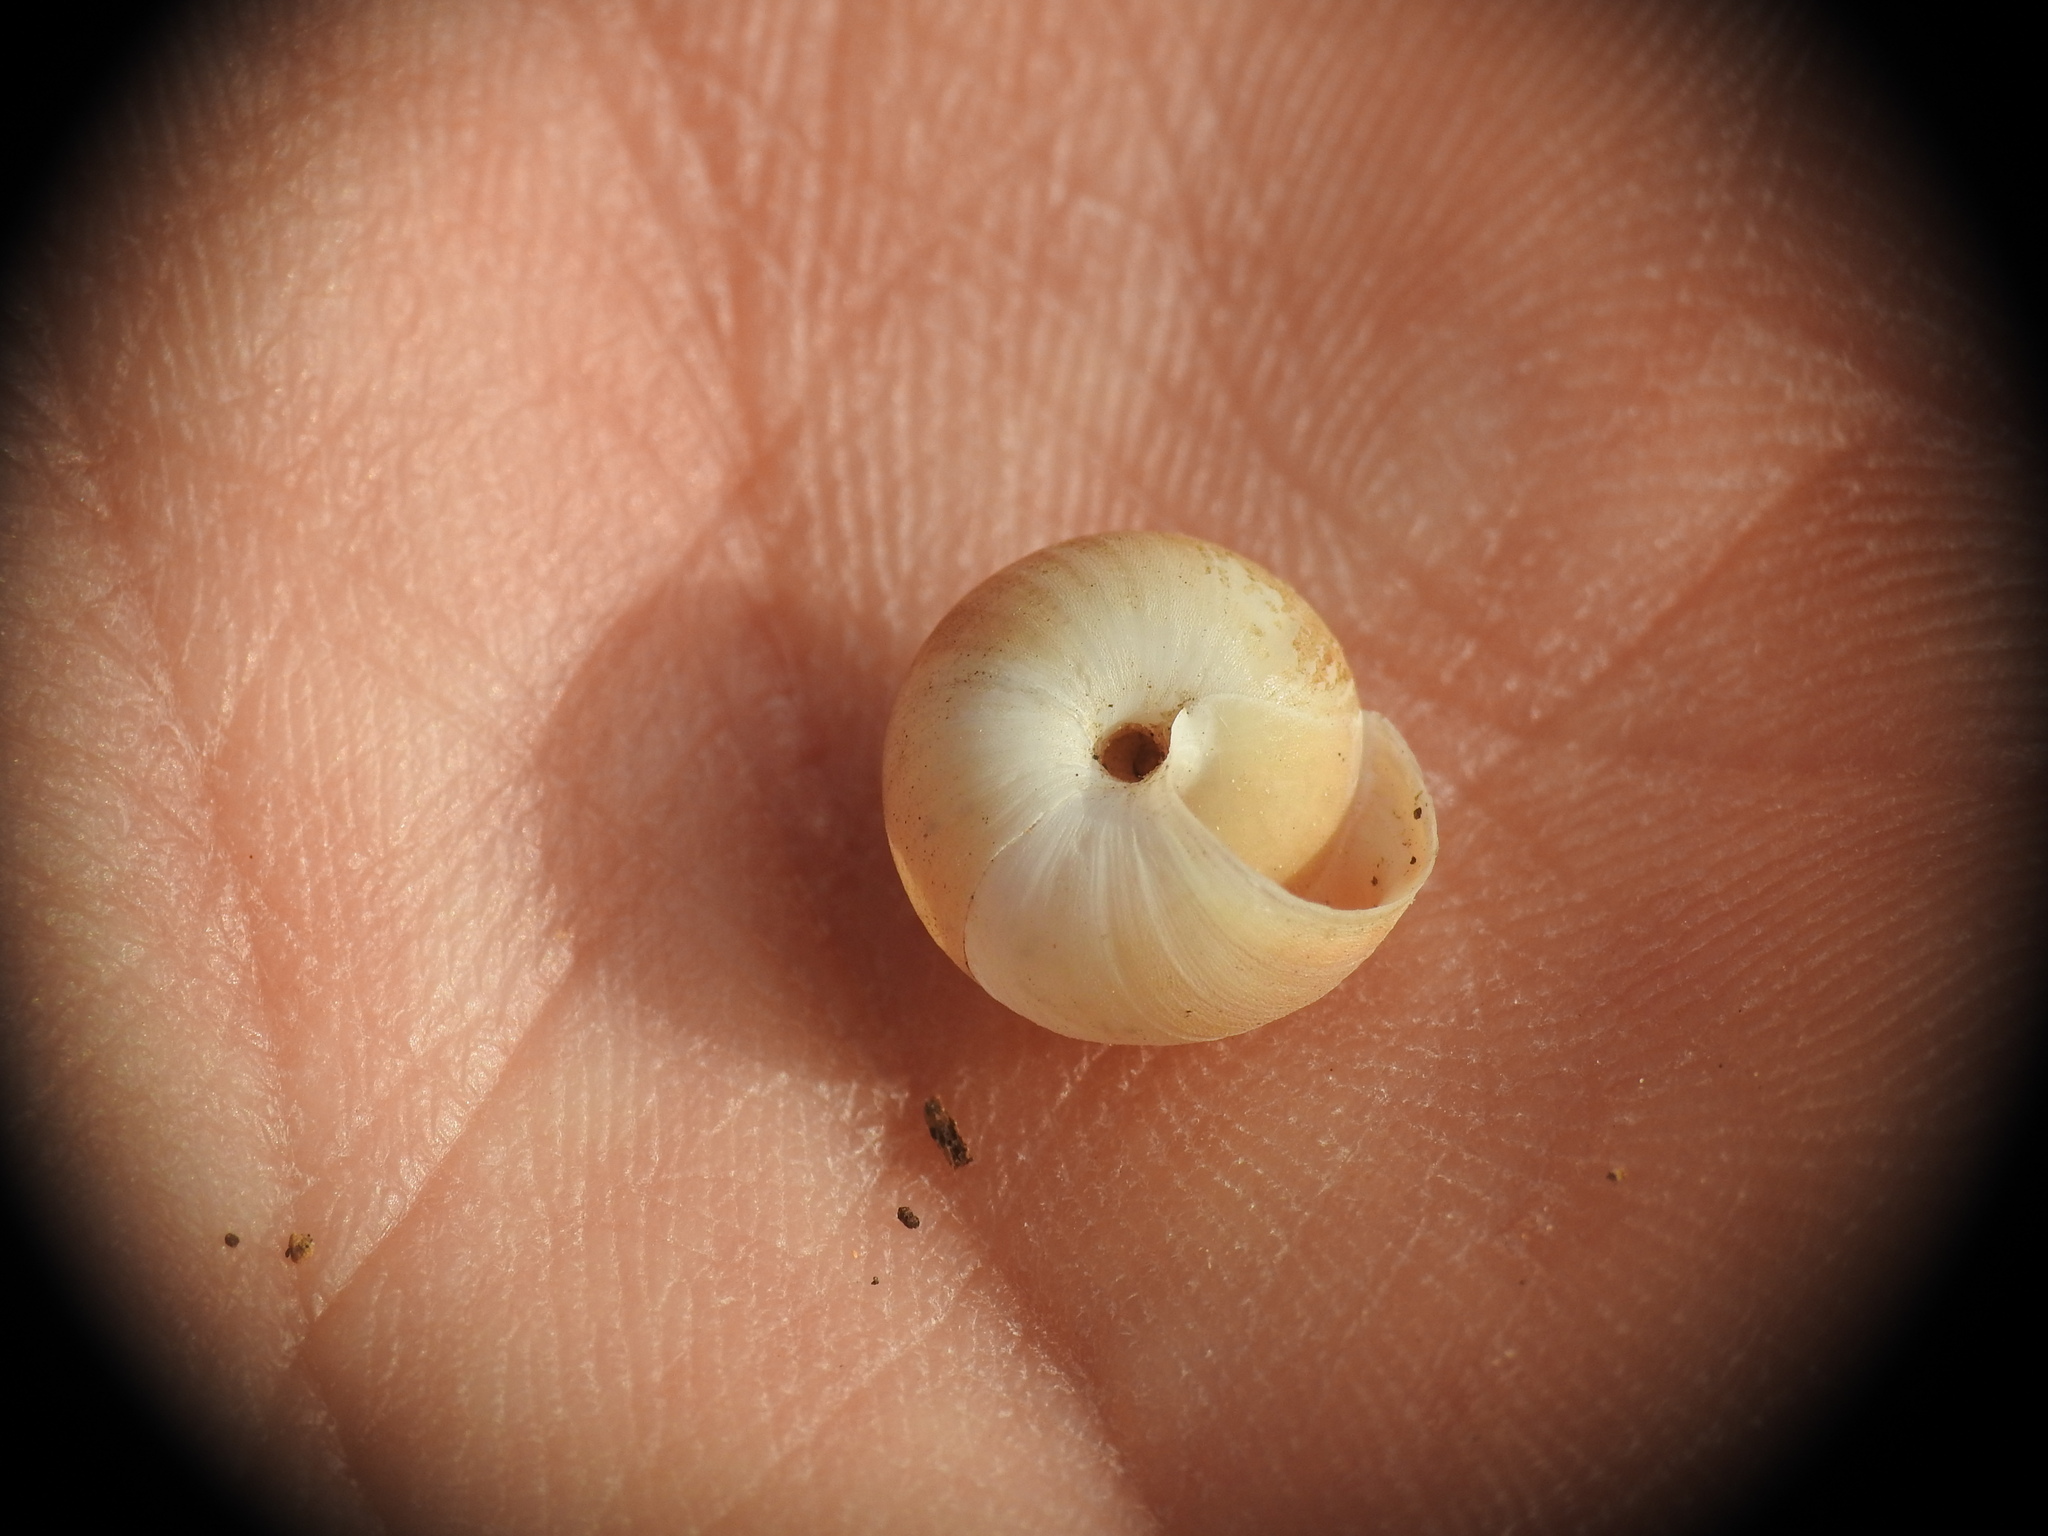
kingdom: Animalia
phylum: Mollusca
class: Gastropoda
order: Stylommatophora
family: Hygromiidae
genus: Metafruticicola
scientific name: Metafruticicola noverca
